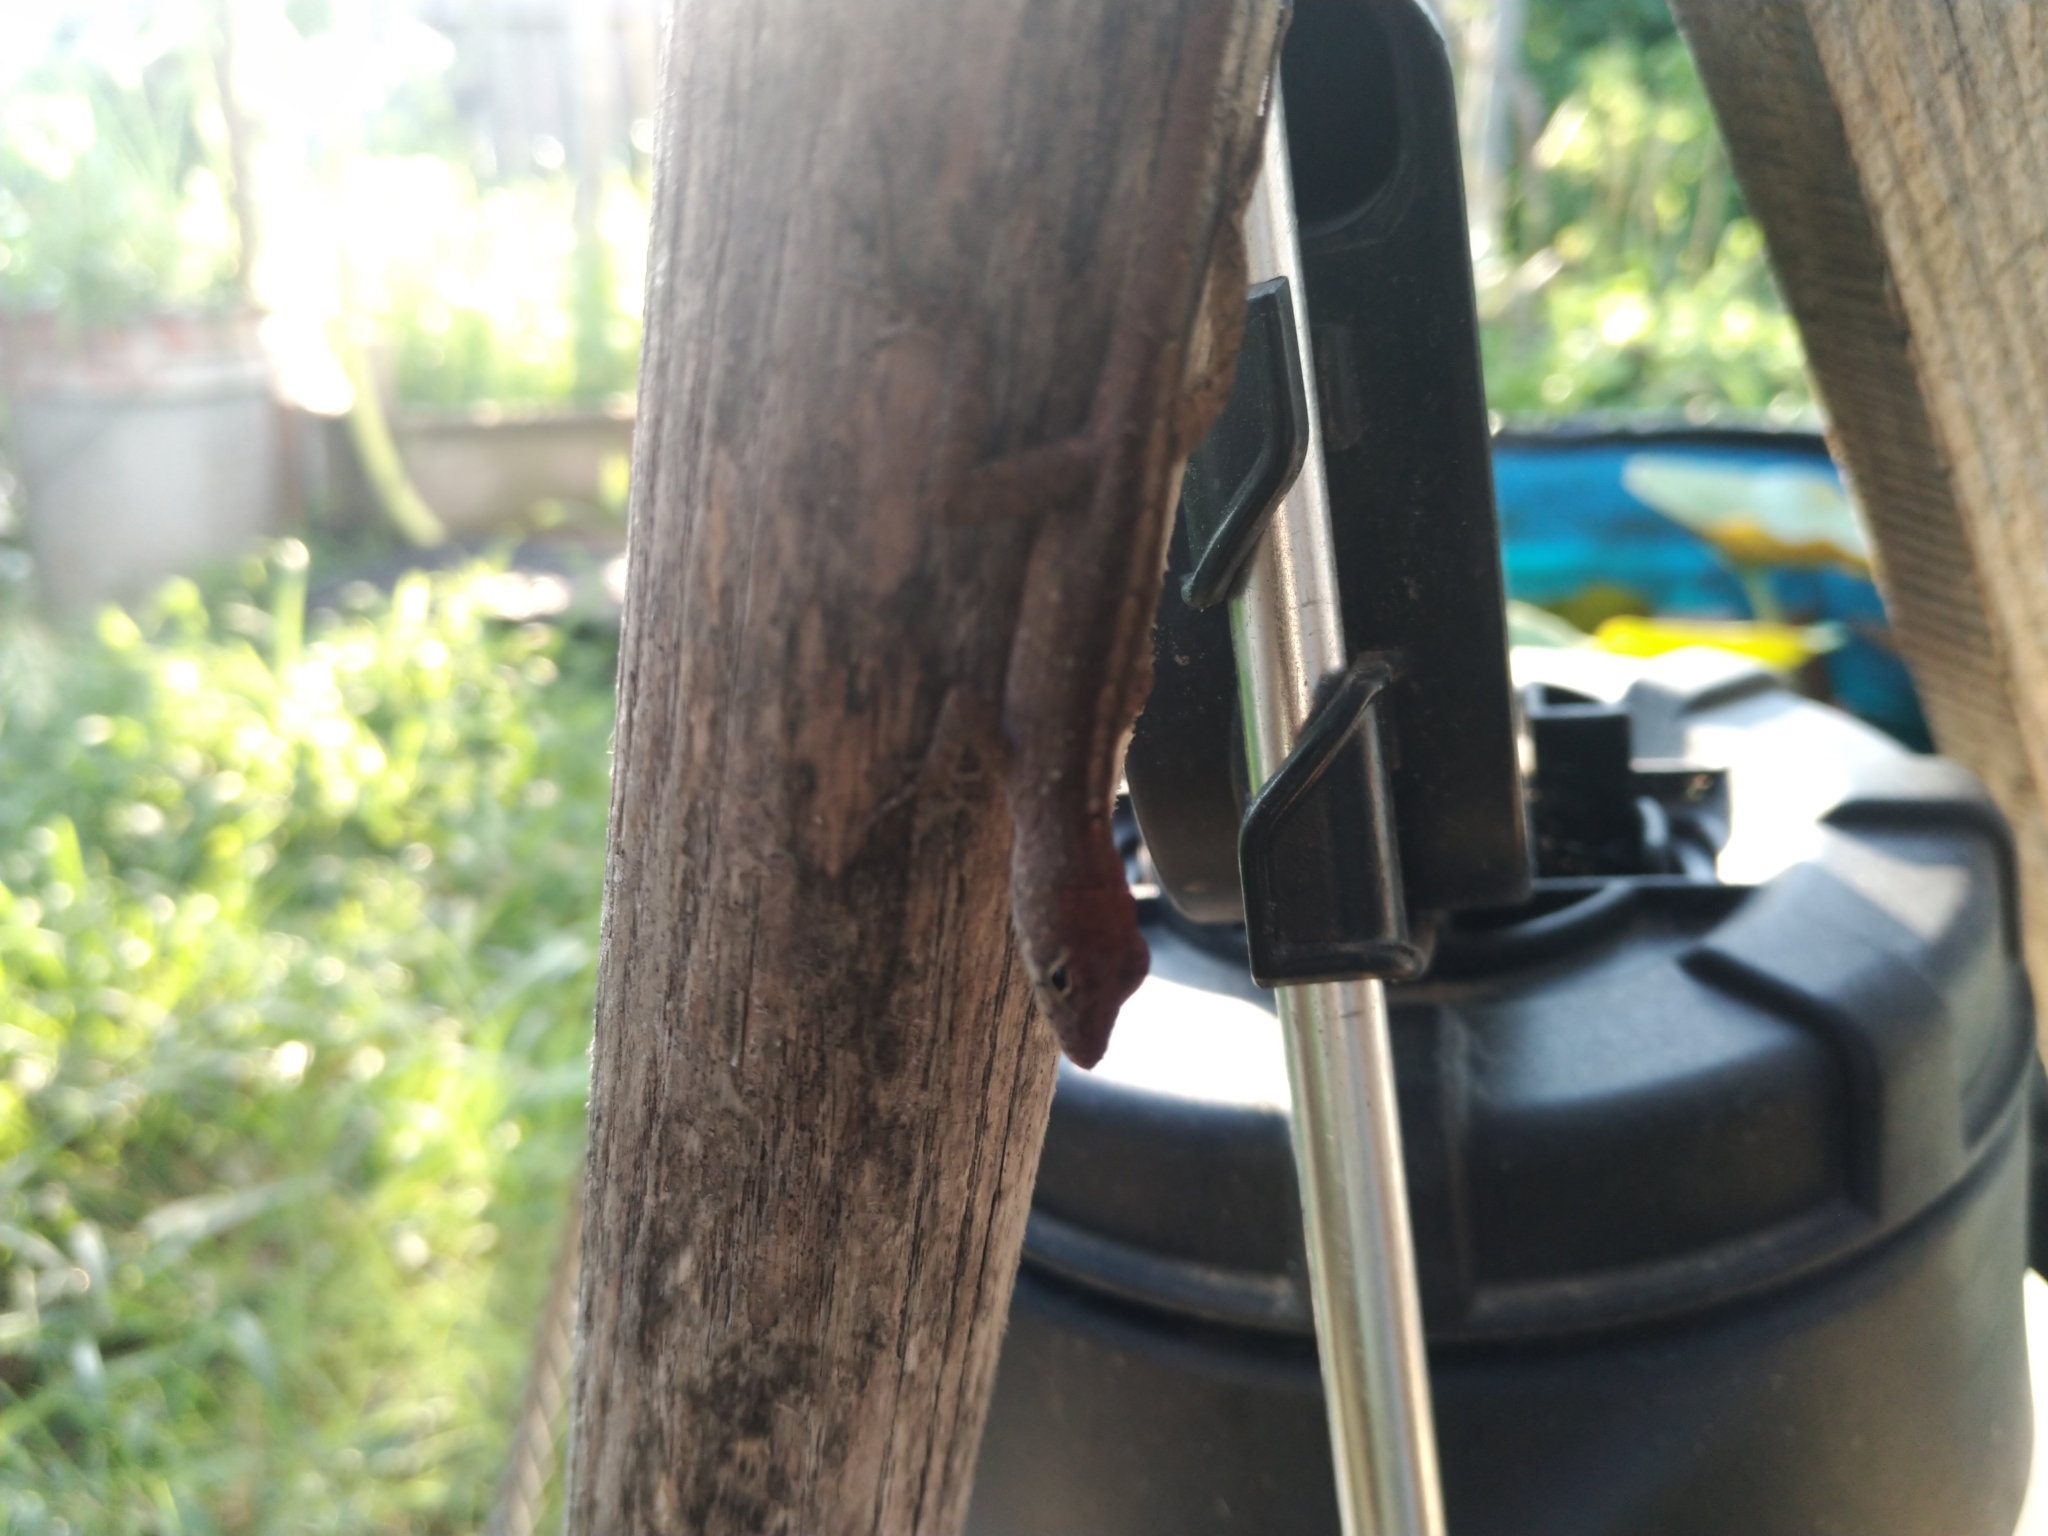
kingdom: Animalia
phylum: Chordata
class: Squamata
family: Dactyloidae
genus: Anolis
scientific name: Anolis sagrei
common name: Brown anole
